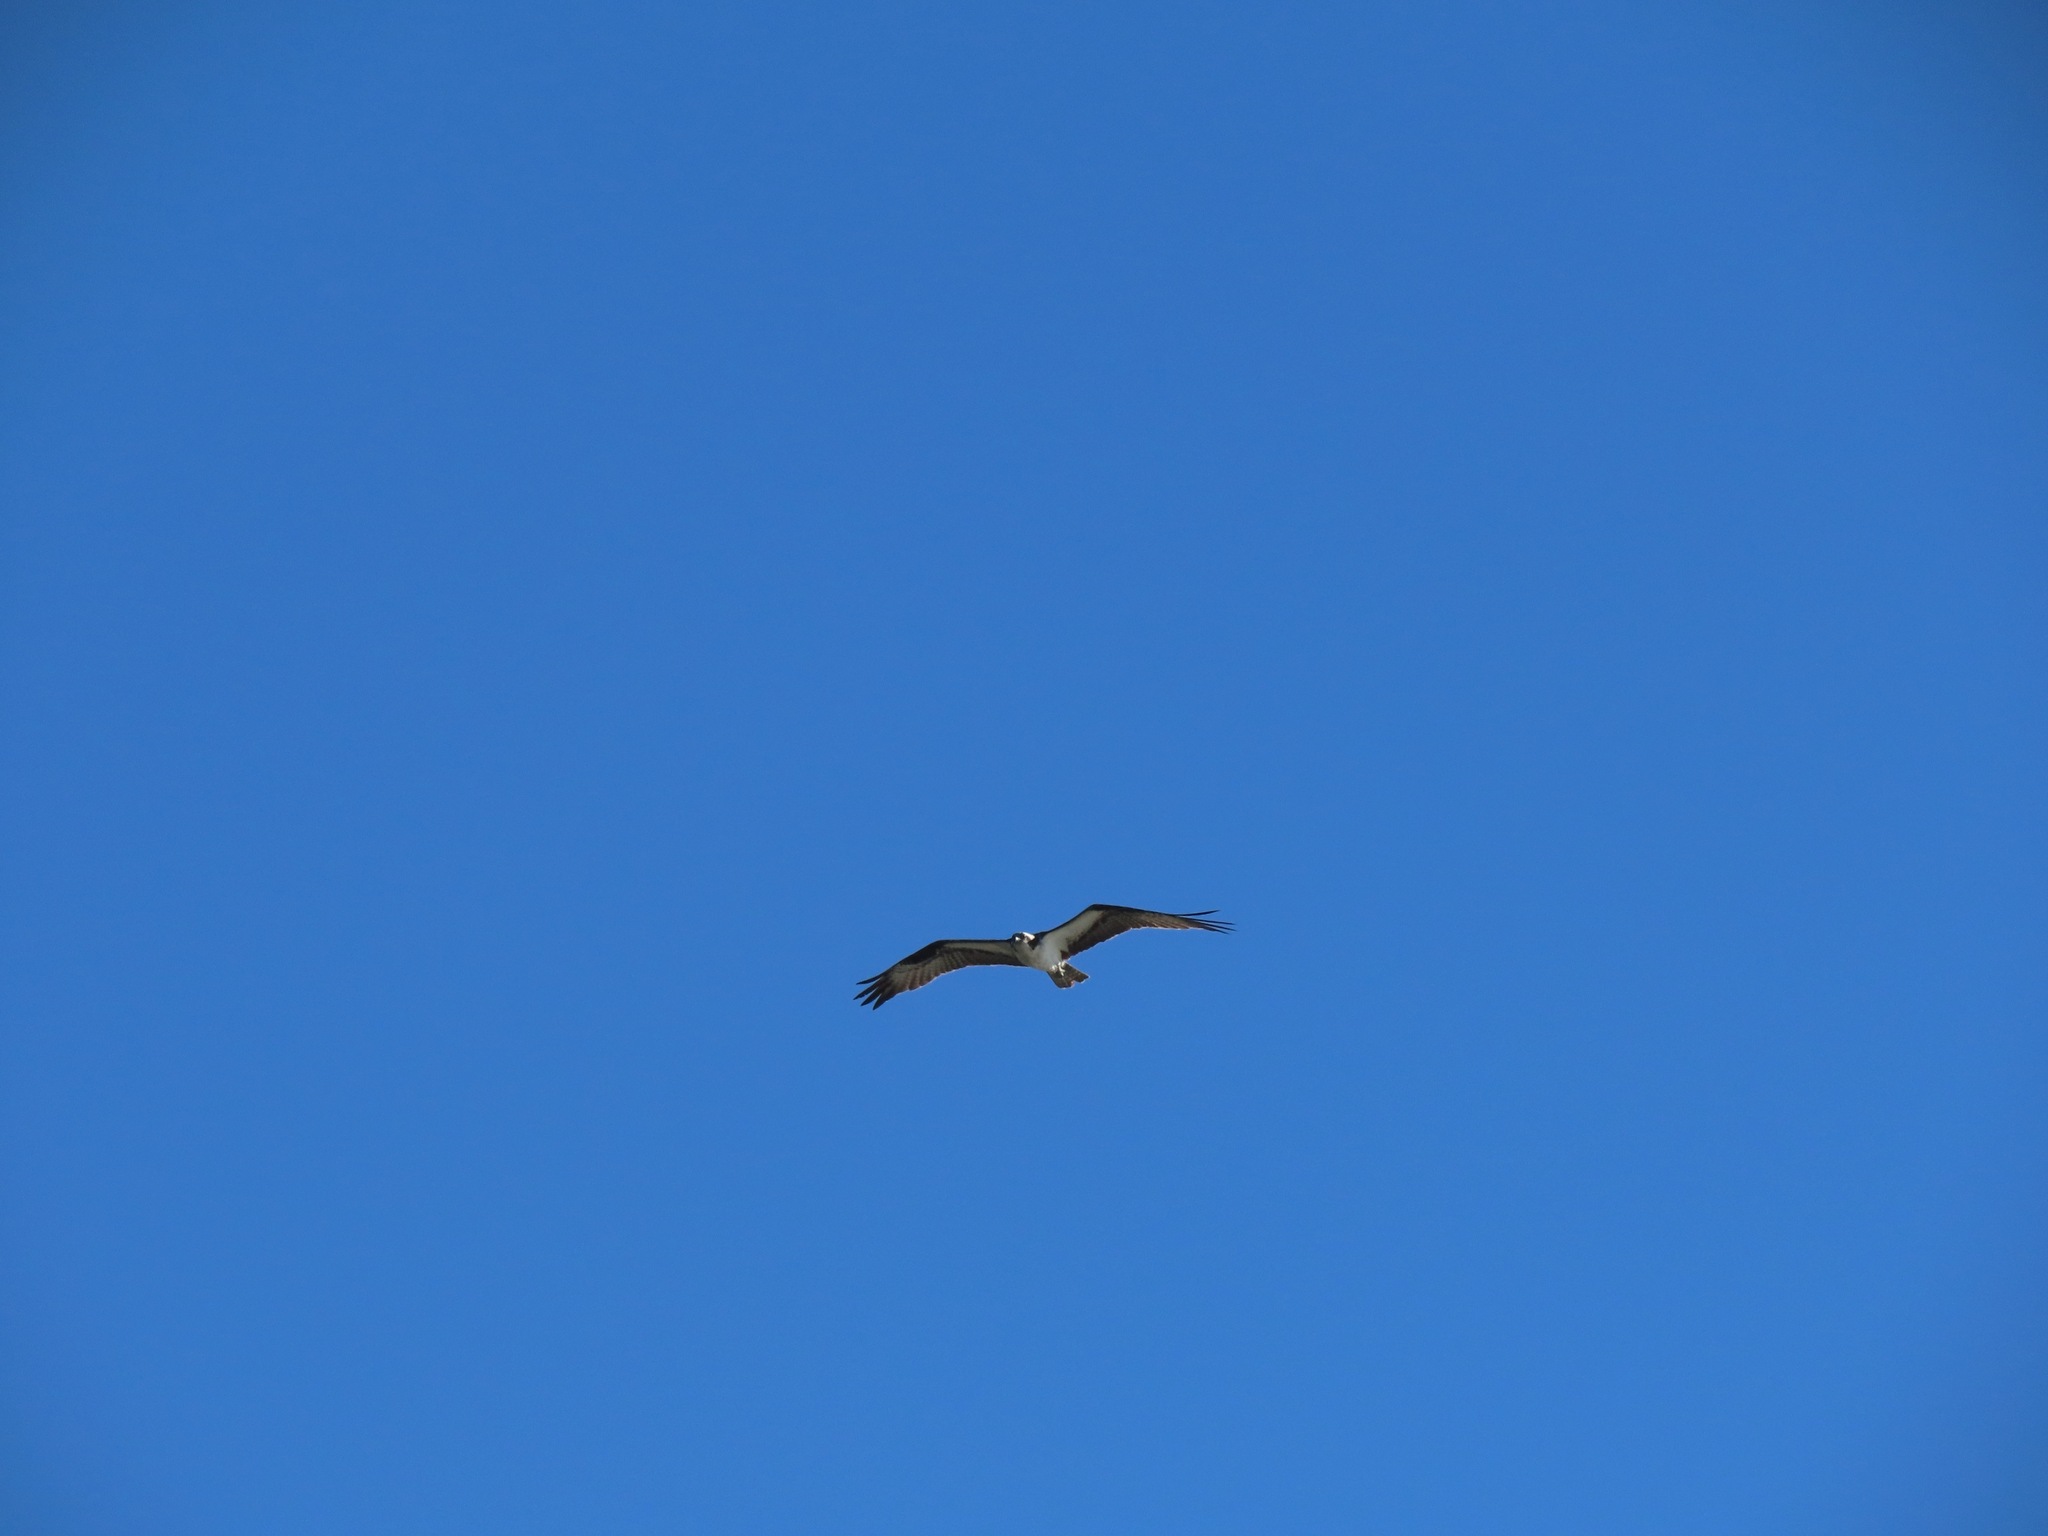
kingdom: Animalia
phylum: Chordata
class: Aves
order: Accipitriformes
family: Pandionidae
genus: Pandion
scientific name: Pandion haliaetus
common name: Osprey
